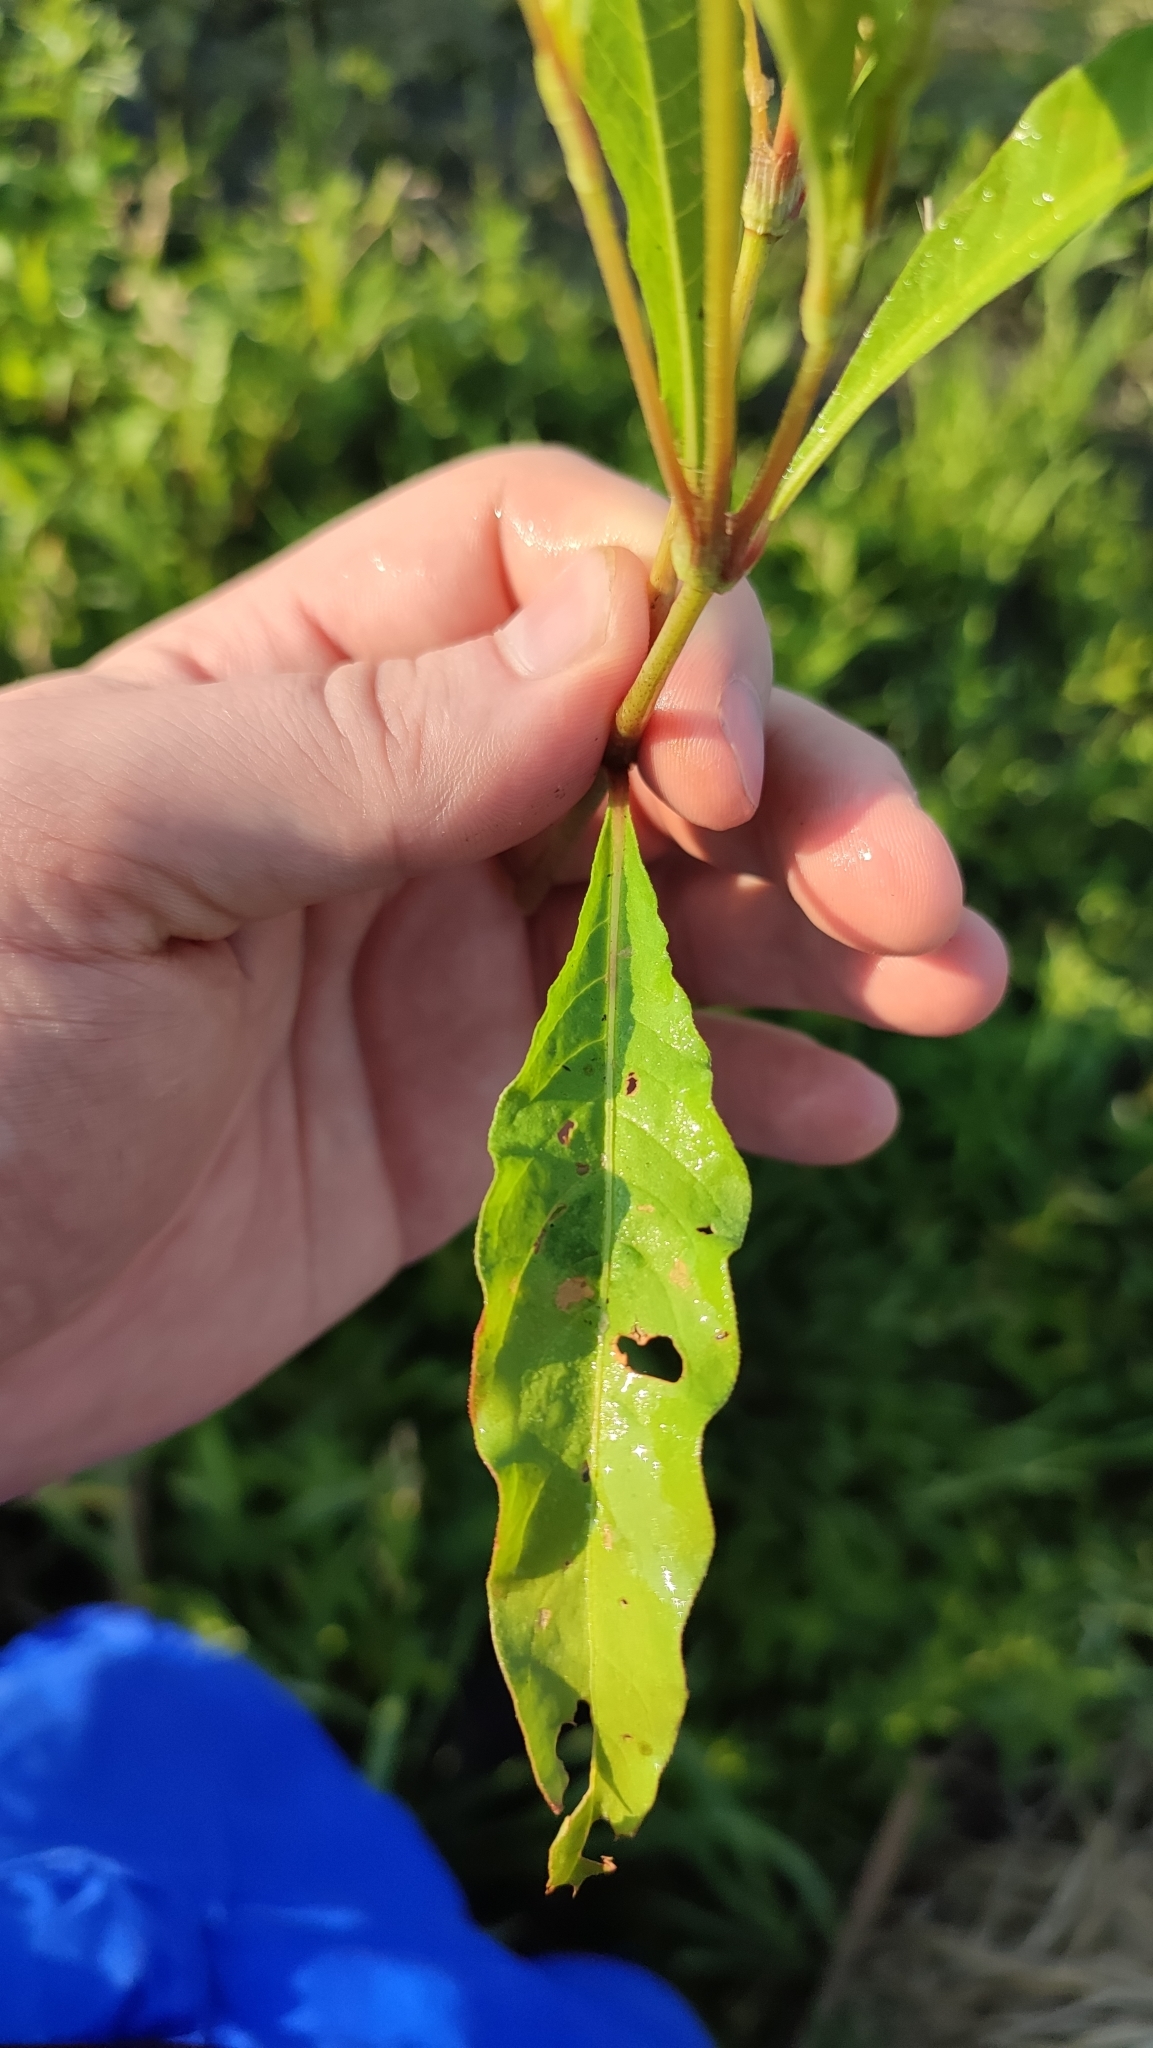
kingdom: Plantae
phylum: Tracheophyta
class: Magnoliopsida
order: Caryophyllales
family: Polygonaceae
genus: Persicaria
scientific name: Persicaria lapathifolia
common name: Curlytop knotweed
